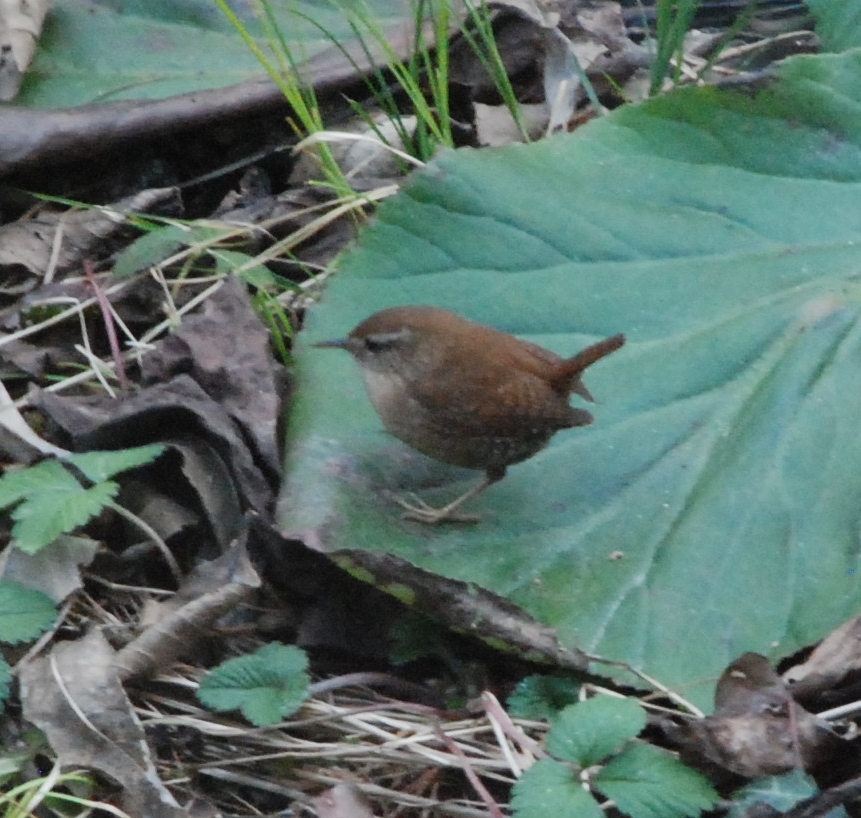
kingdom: Animalia
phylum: Chordata
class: Aves
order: Passeriformes
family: Troglodytidae
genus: Troglodytes
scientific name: Troglodytes troglodytes
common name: Eurasian wren
